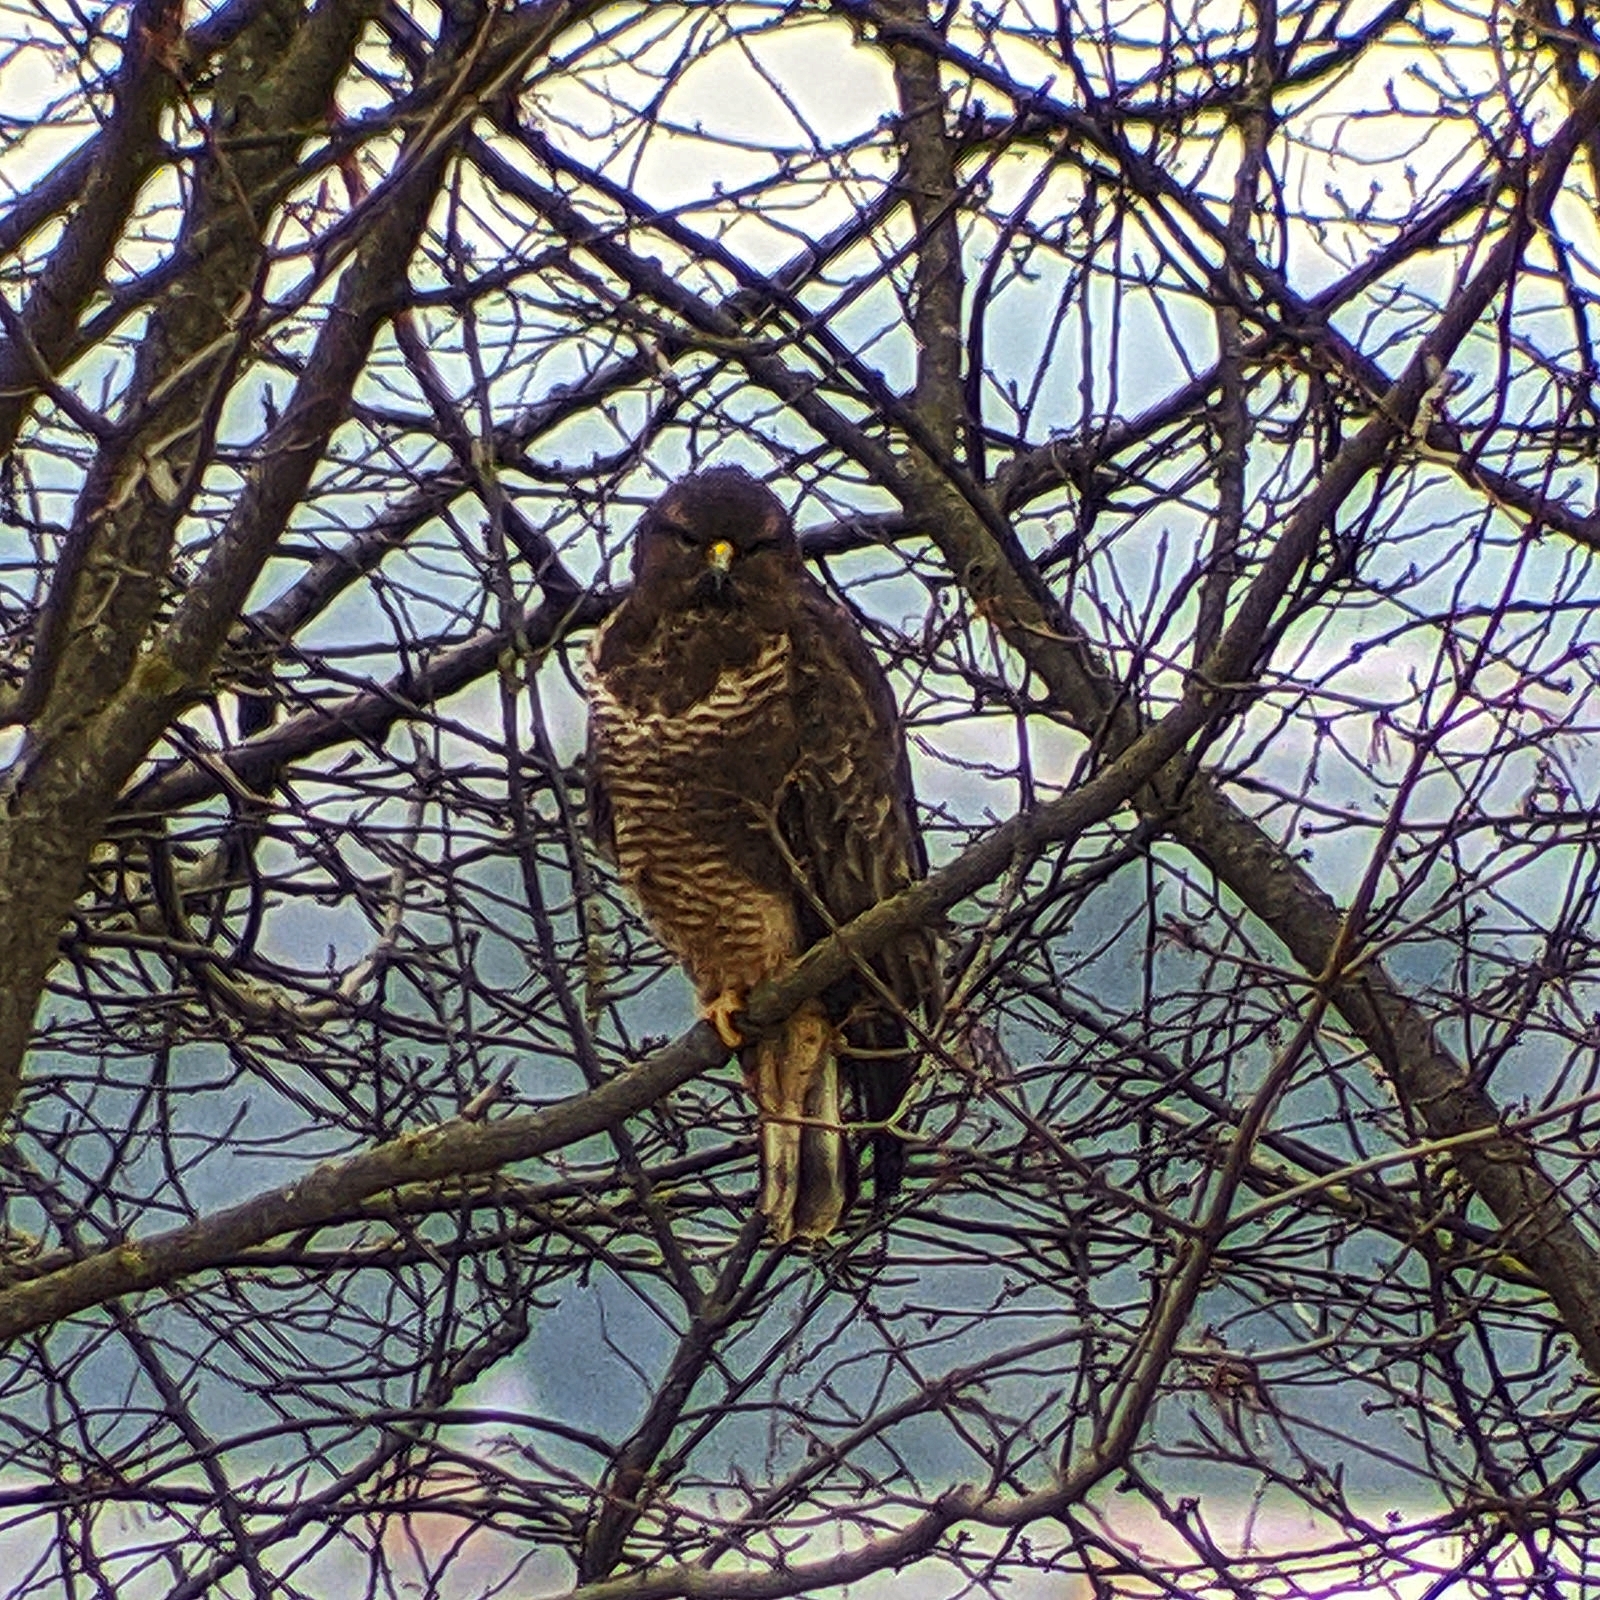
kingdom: Animalia
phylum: Chordata
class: Aves
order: Accipitriformes
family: Accipitridae
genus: Buteo
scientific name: Buteo buteo
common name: Common buzzard
